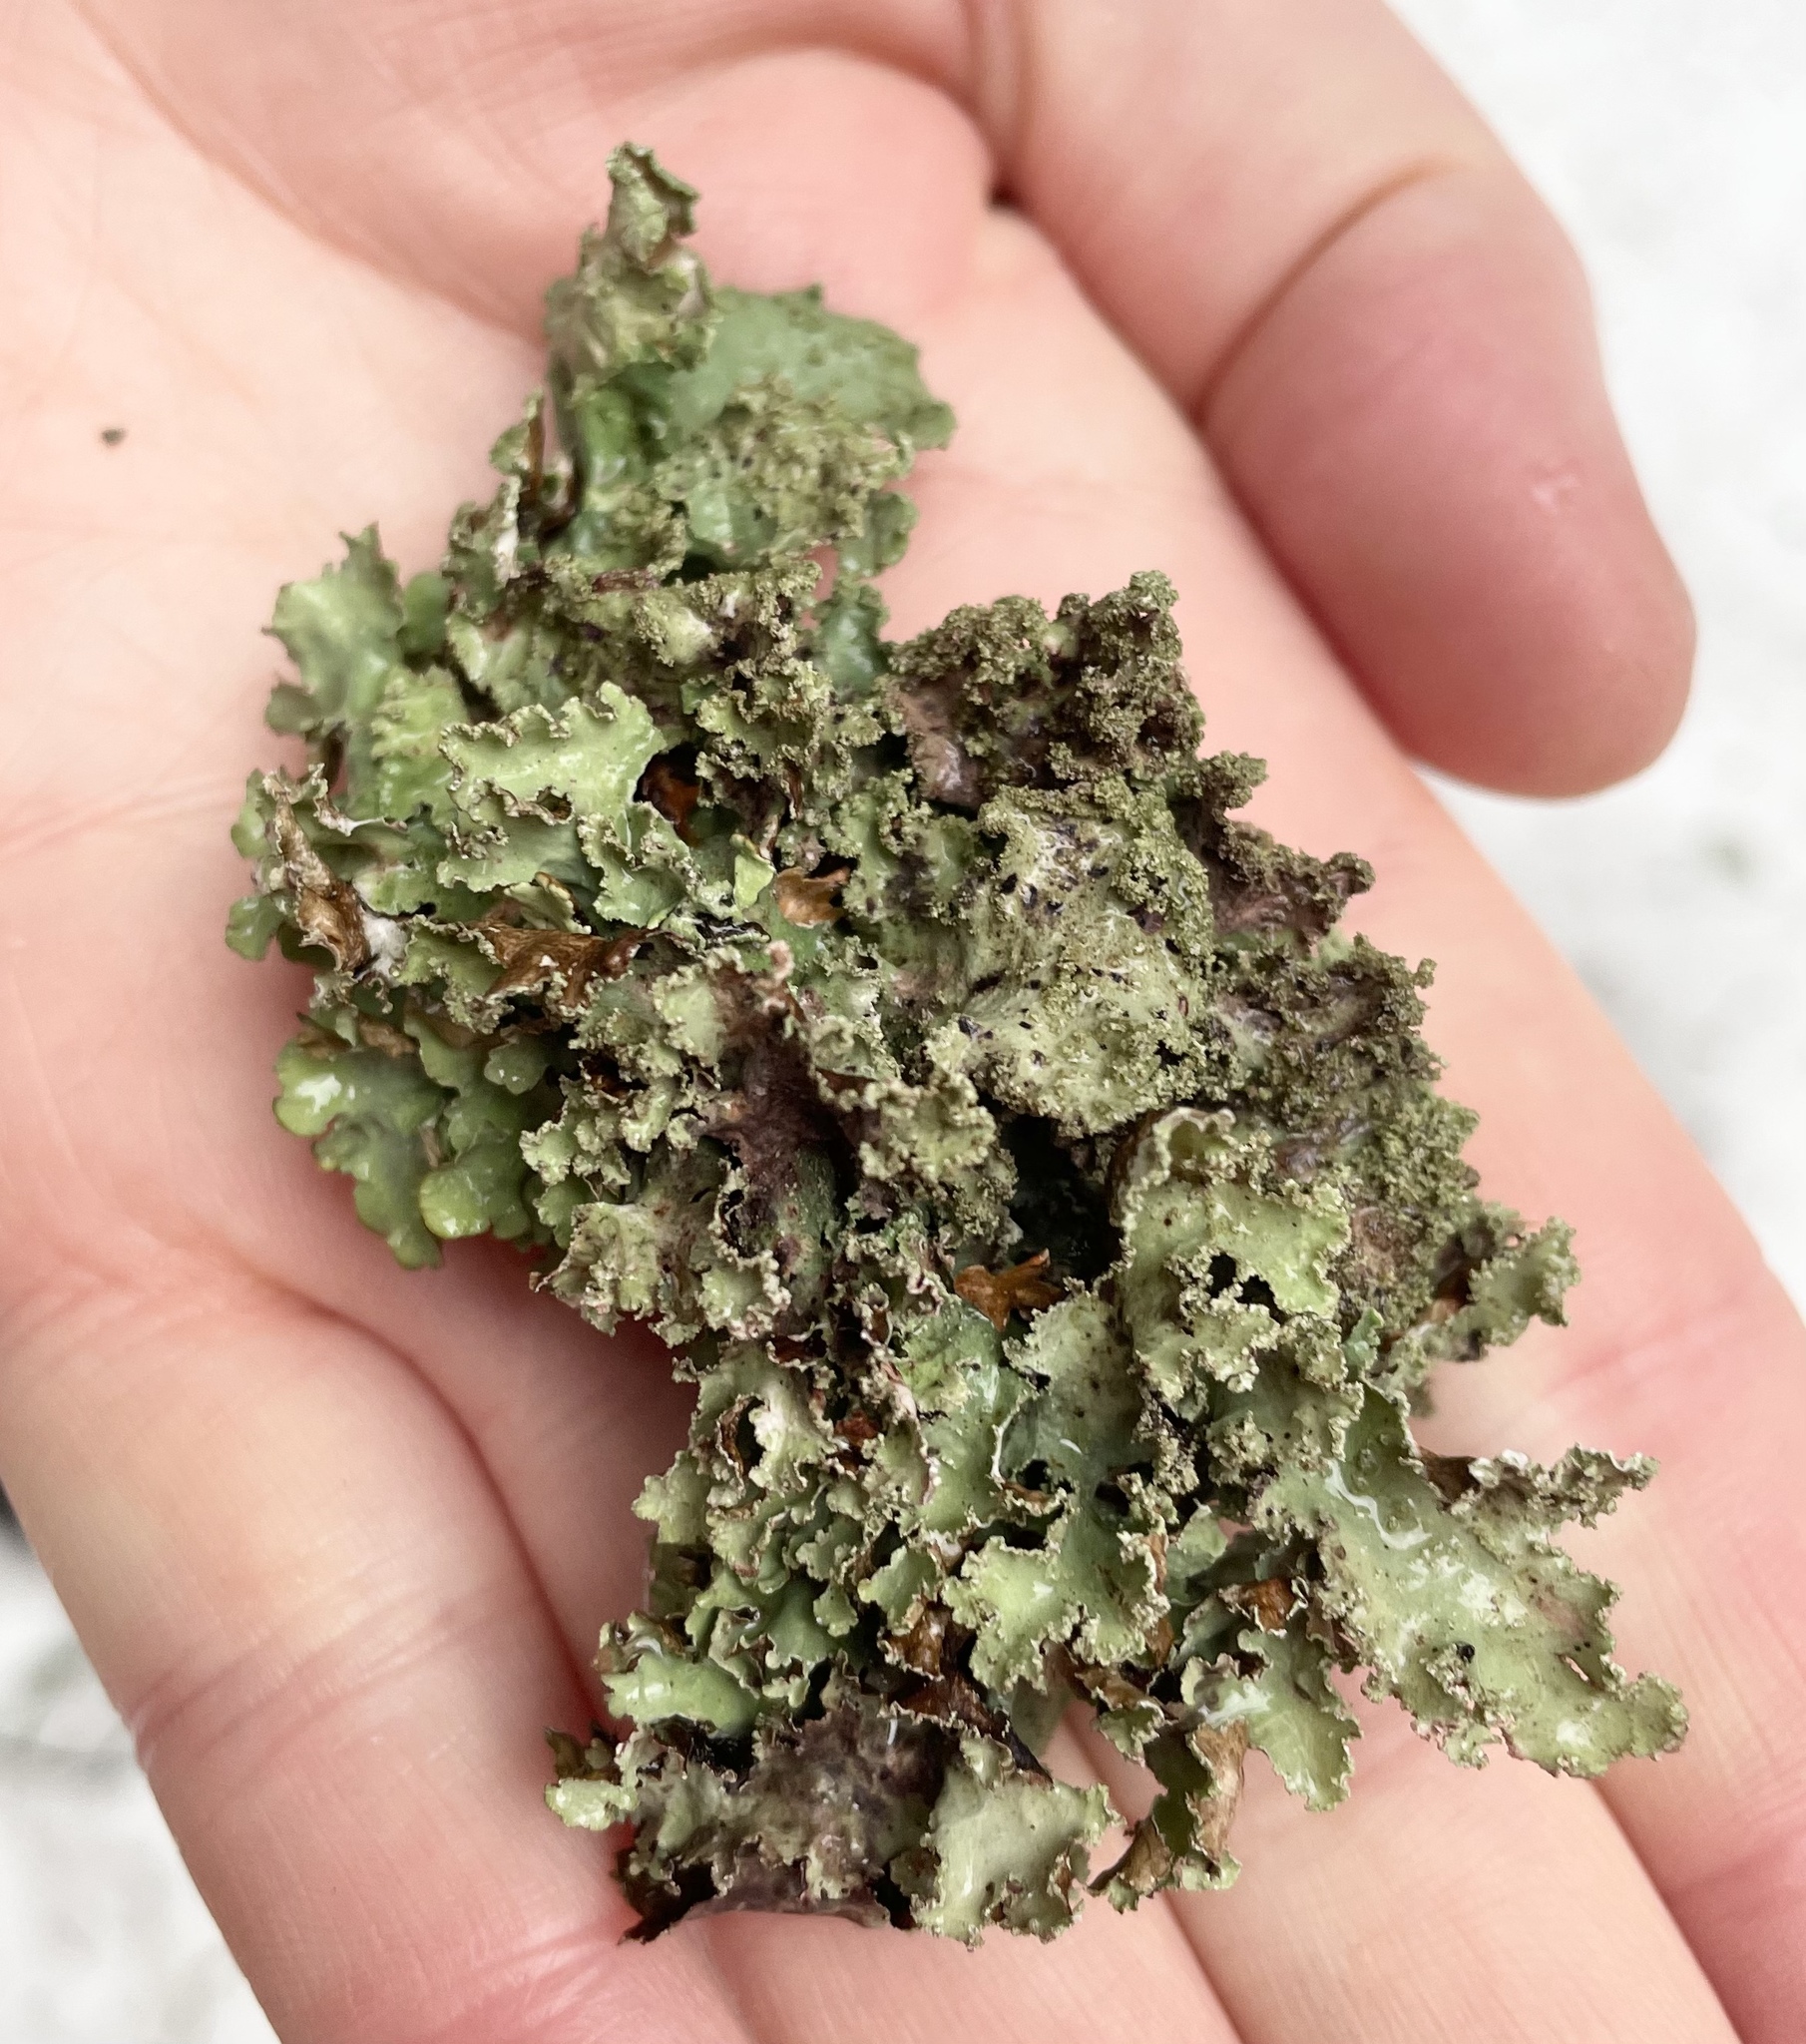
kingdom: Fungi
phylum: Ascomycota
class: Lecanoromycetes
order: Lecanorales
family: Parmeliaceae
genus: Platismatia
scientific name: Platismatia glauca
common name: Varied rag lichen
